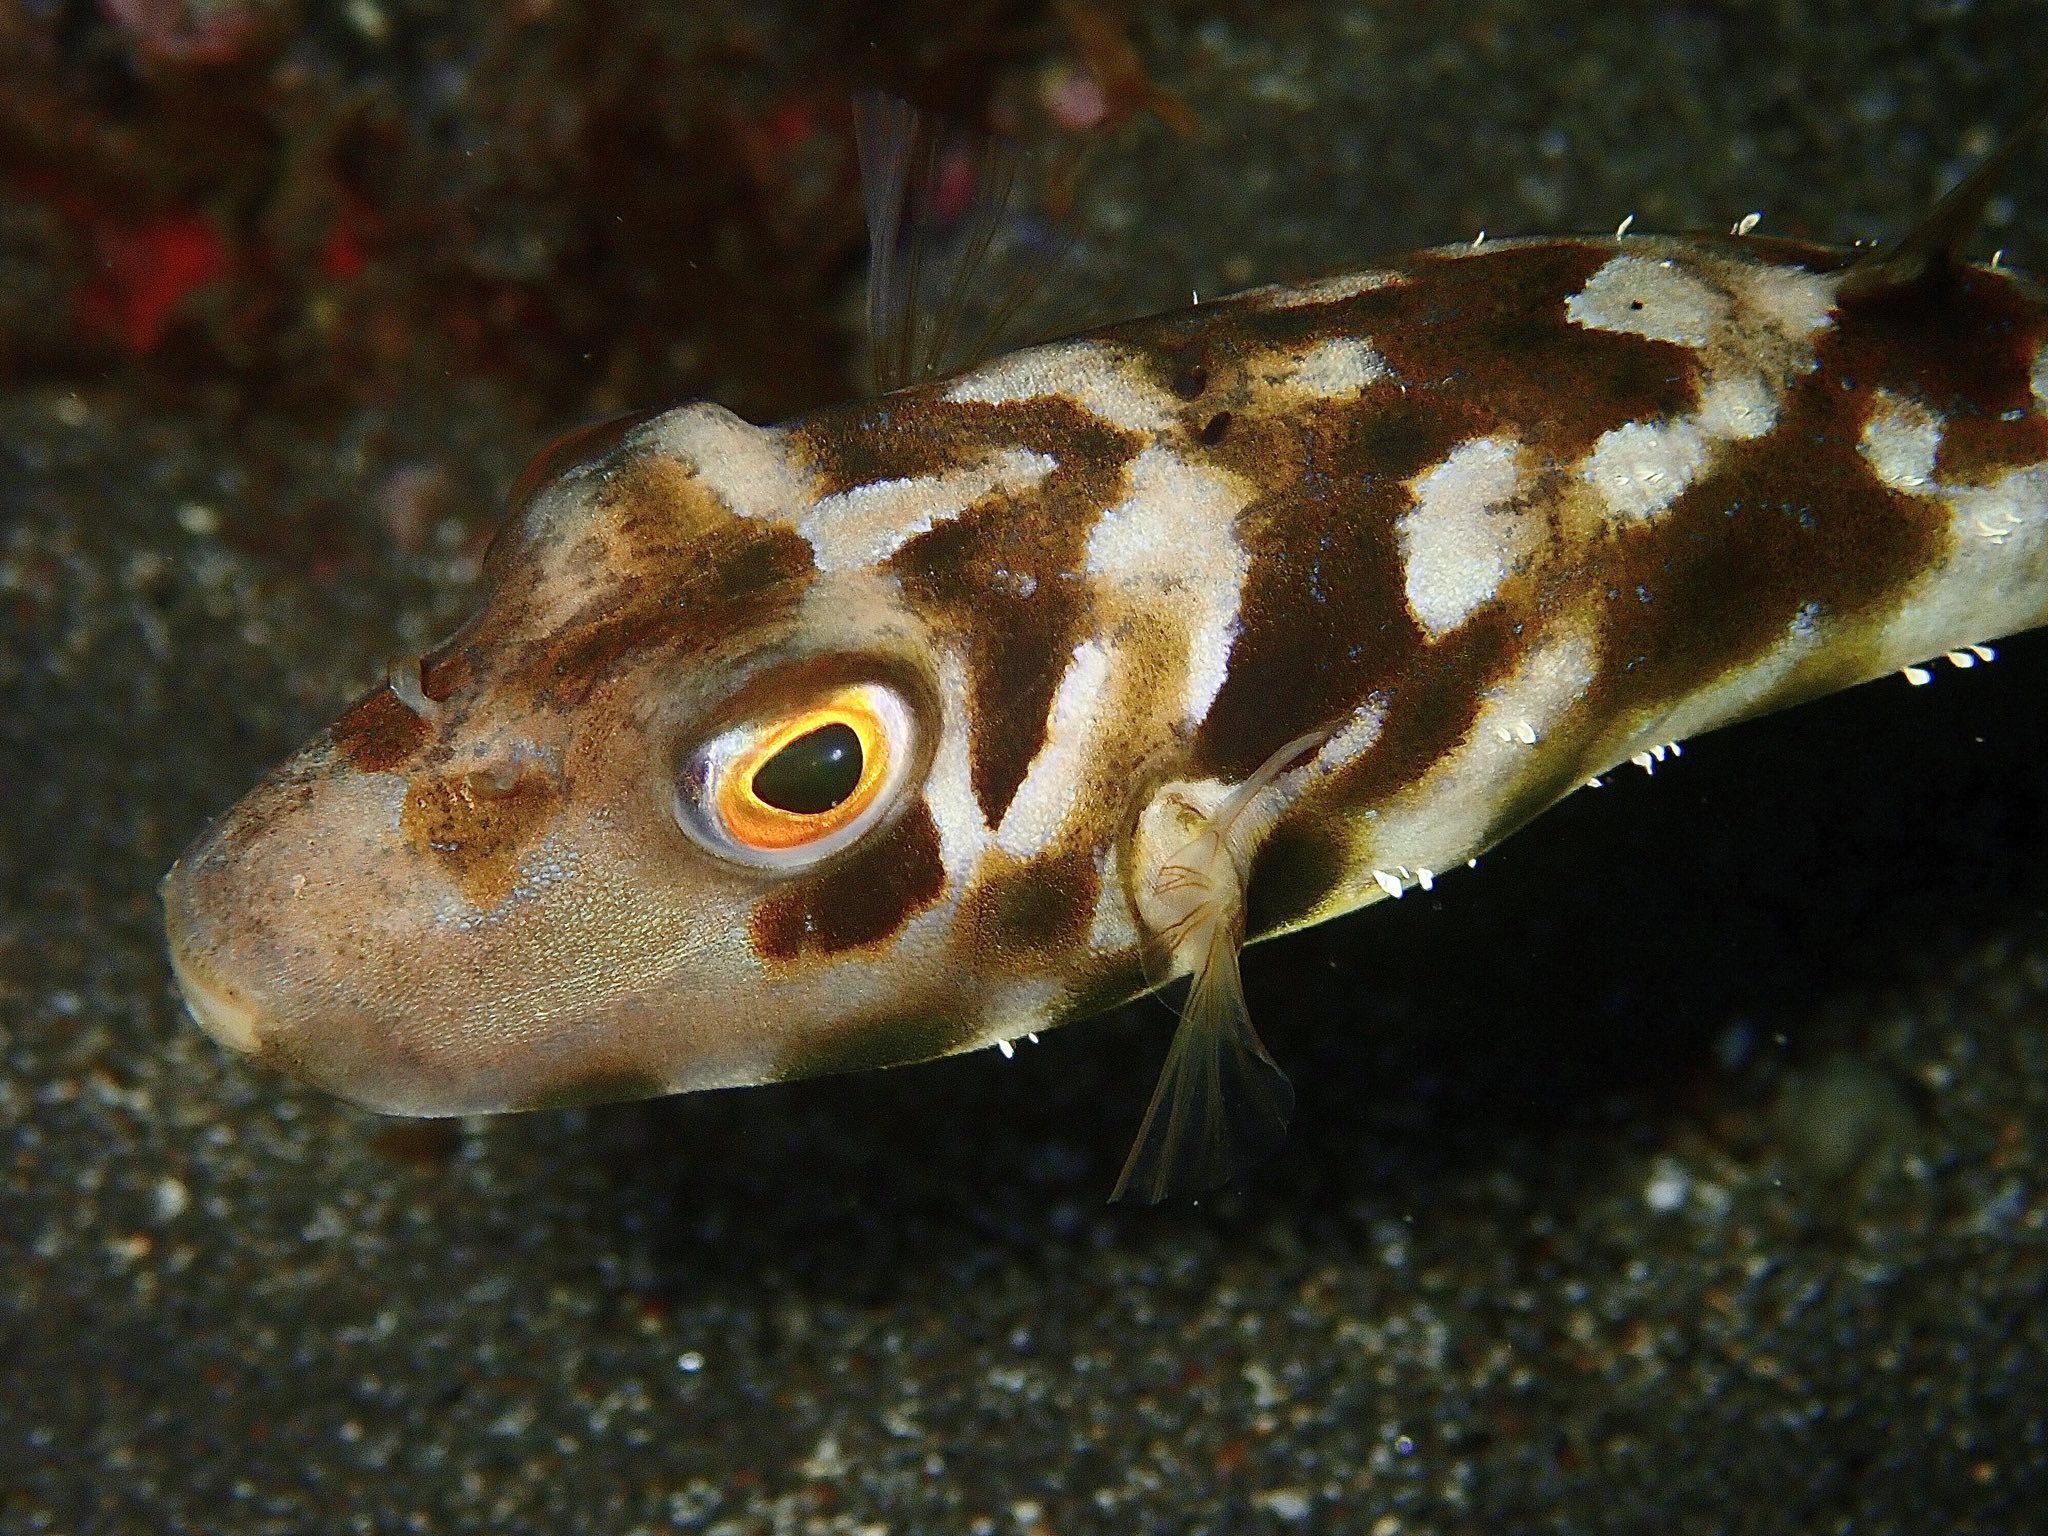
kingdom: Animalia
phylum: Chordata
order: Tetraodontiformes
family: Tetraodontidae
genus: Sphoeroides
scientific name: Sphoeroides marmoratus
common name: Guinean puffer
